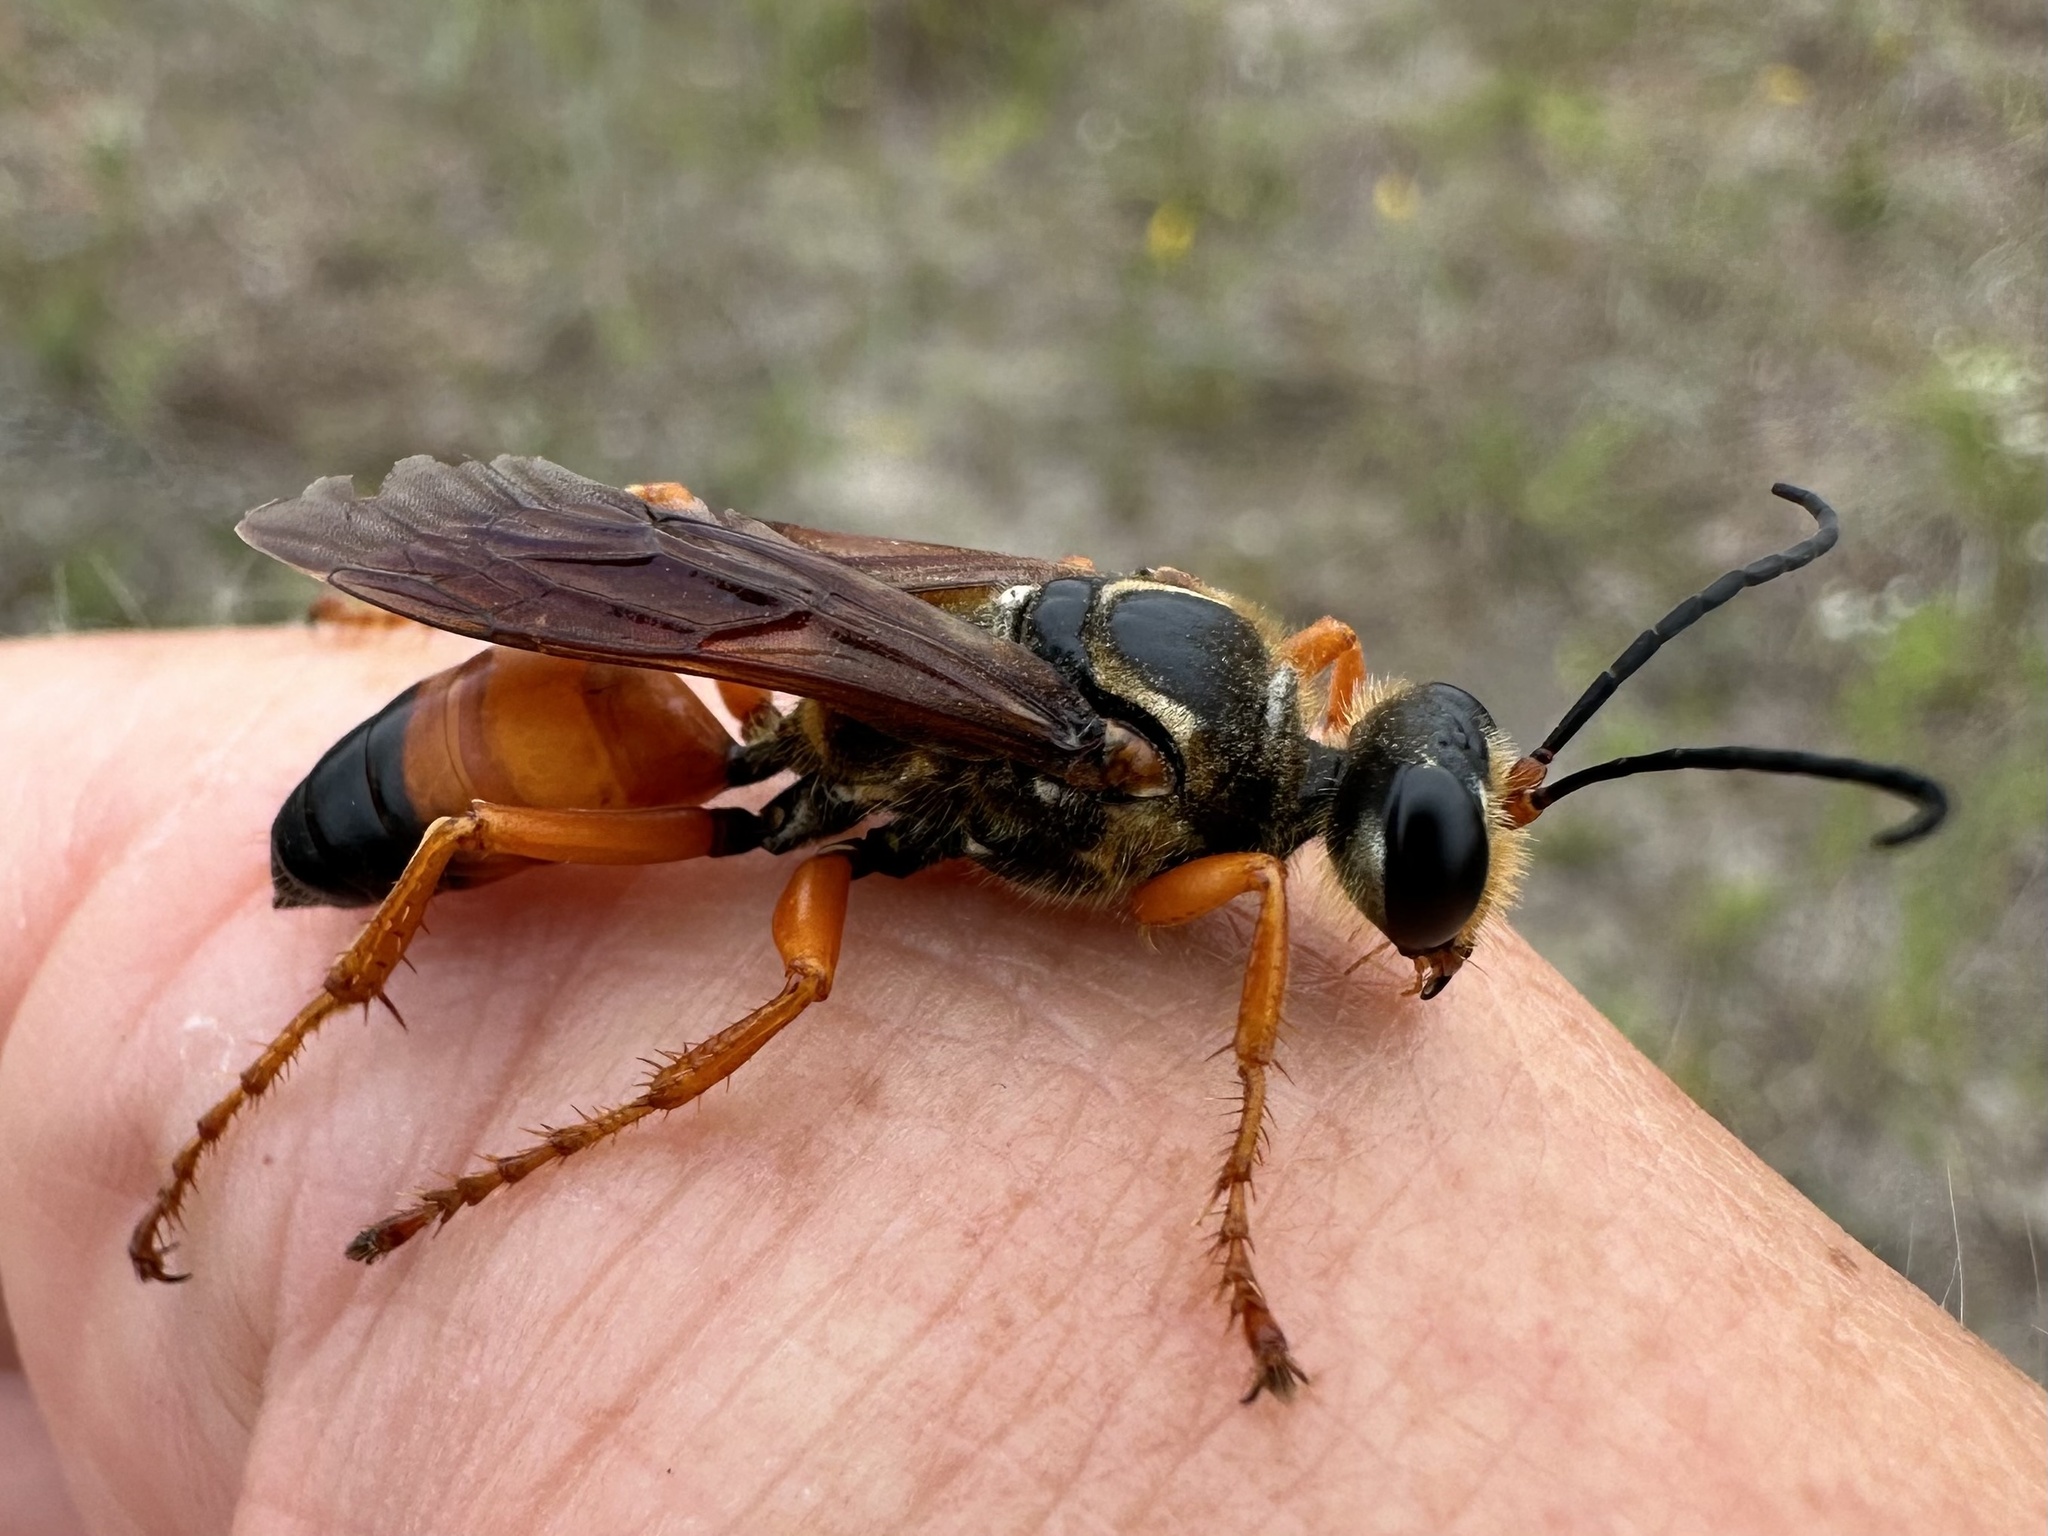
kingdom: Animalia
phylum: Arthropoda
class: Insecta
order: Hymenoptera
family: Sphecidae
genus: Sphex
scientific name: Sphex ichneumoneus
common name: Great golden digger wasp
